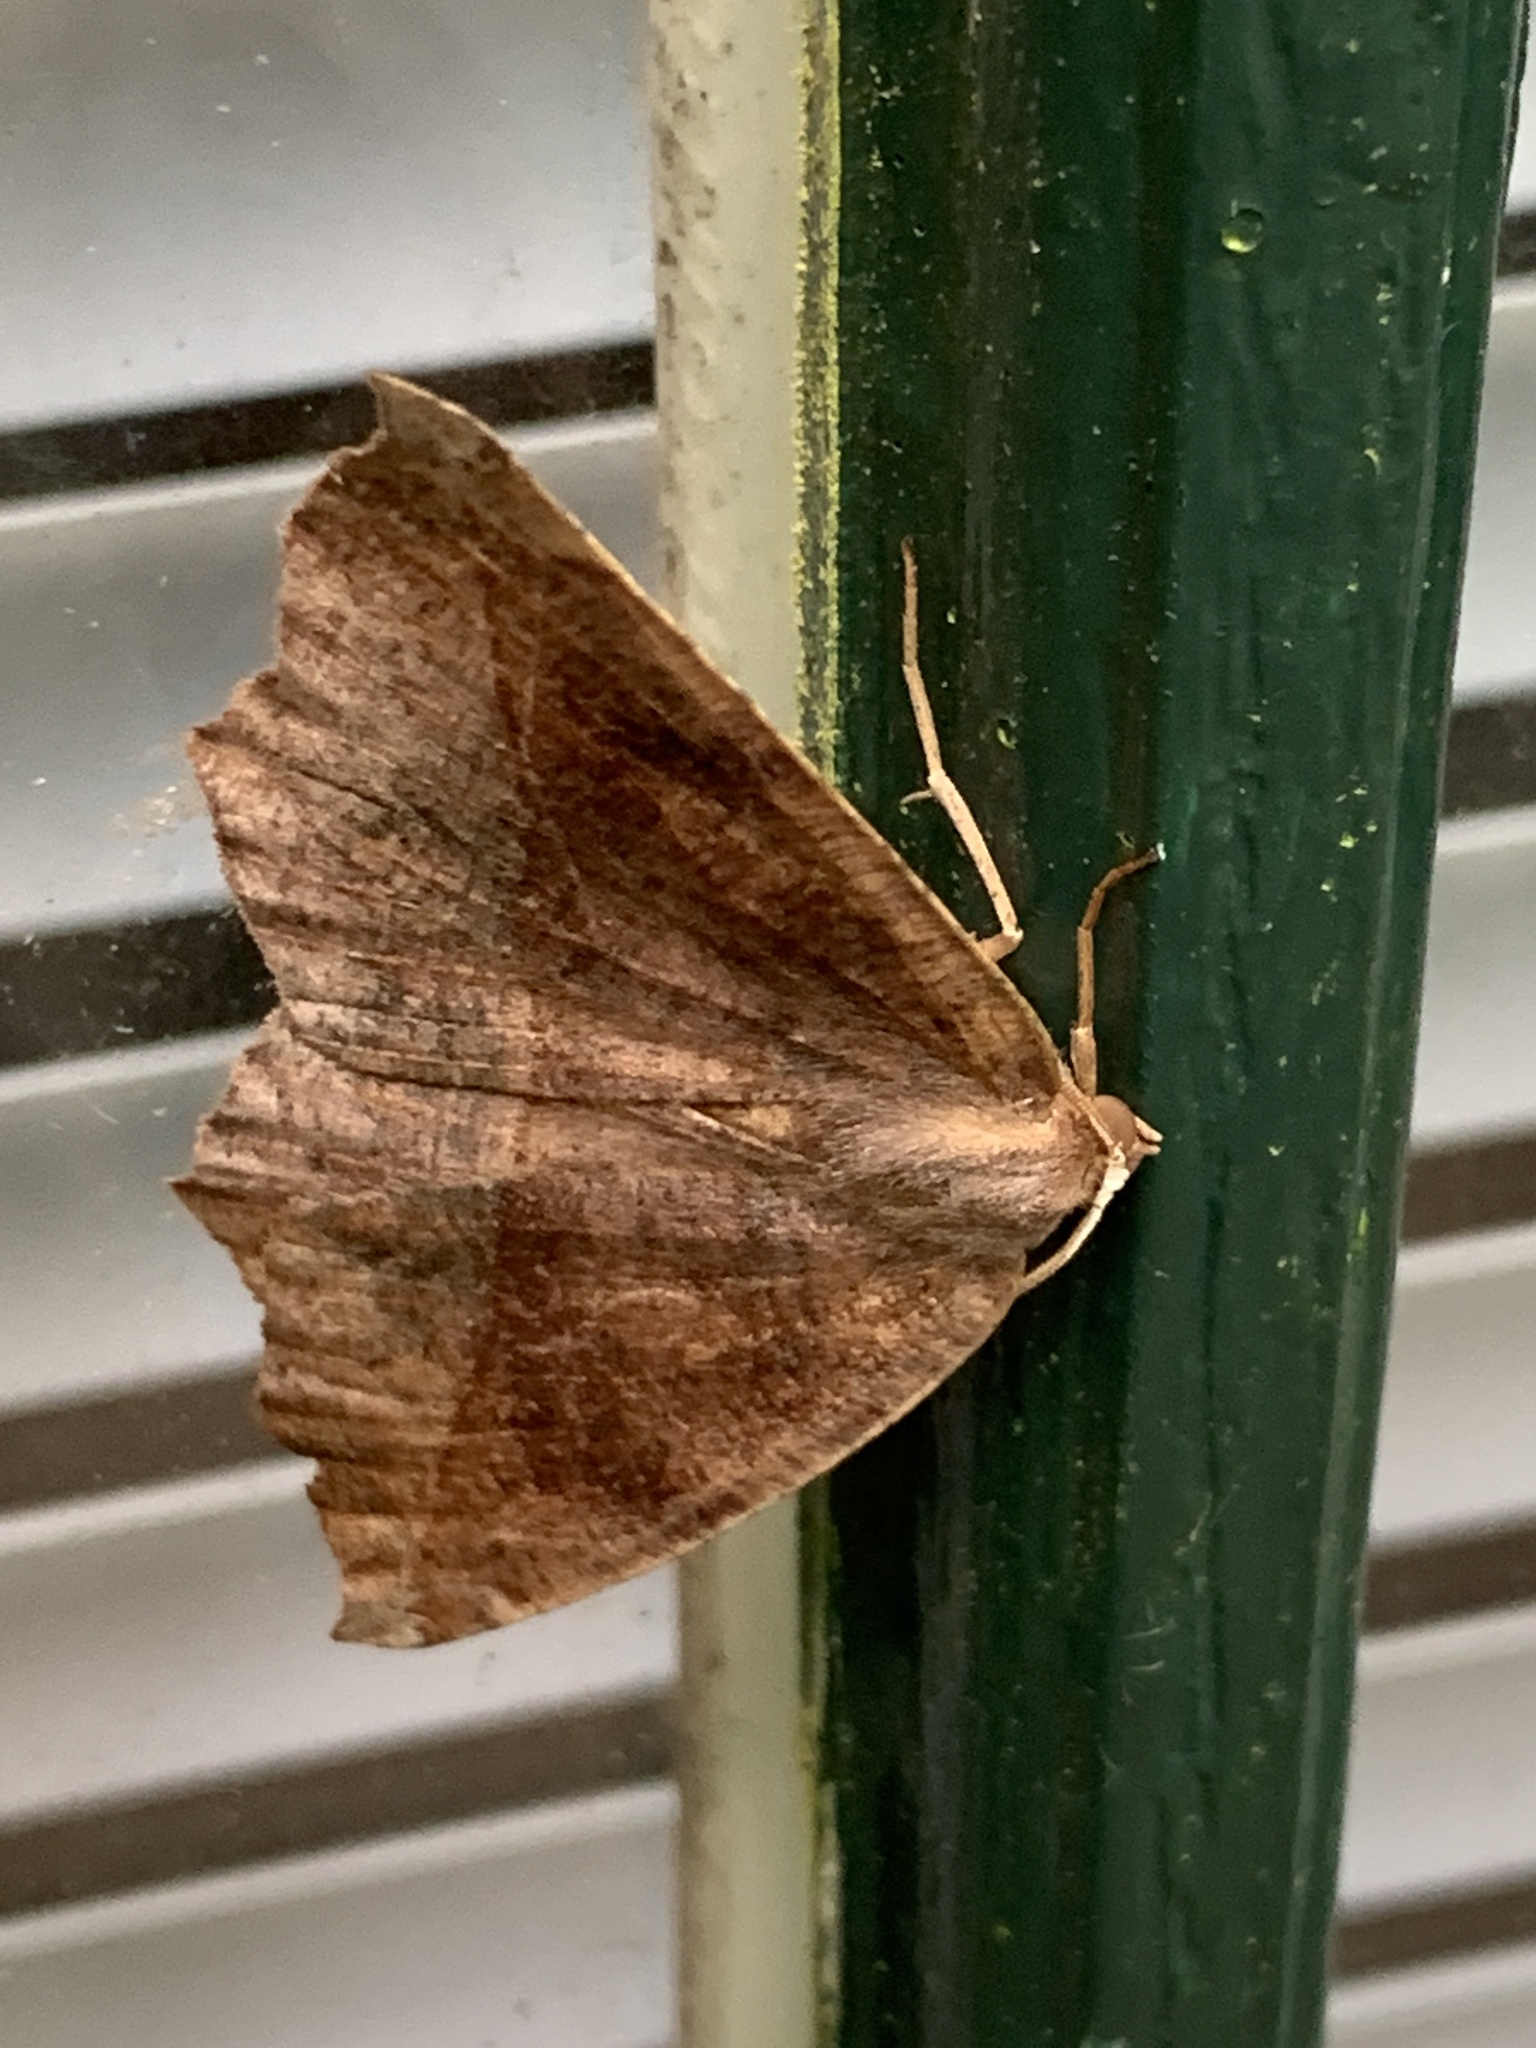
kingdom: Animalia
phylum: Arthropoda
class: Insecta
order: Lepidoptera
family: Geometridae
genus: Eutrapela
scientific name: Eutrapela clemataria
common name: Curved-toothed geometer
